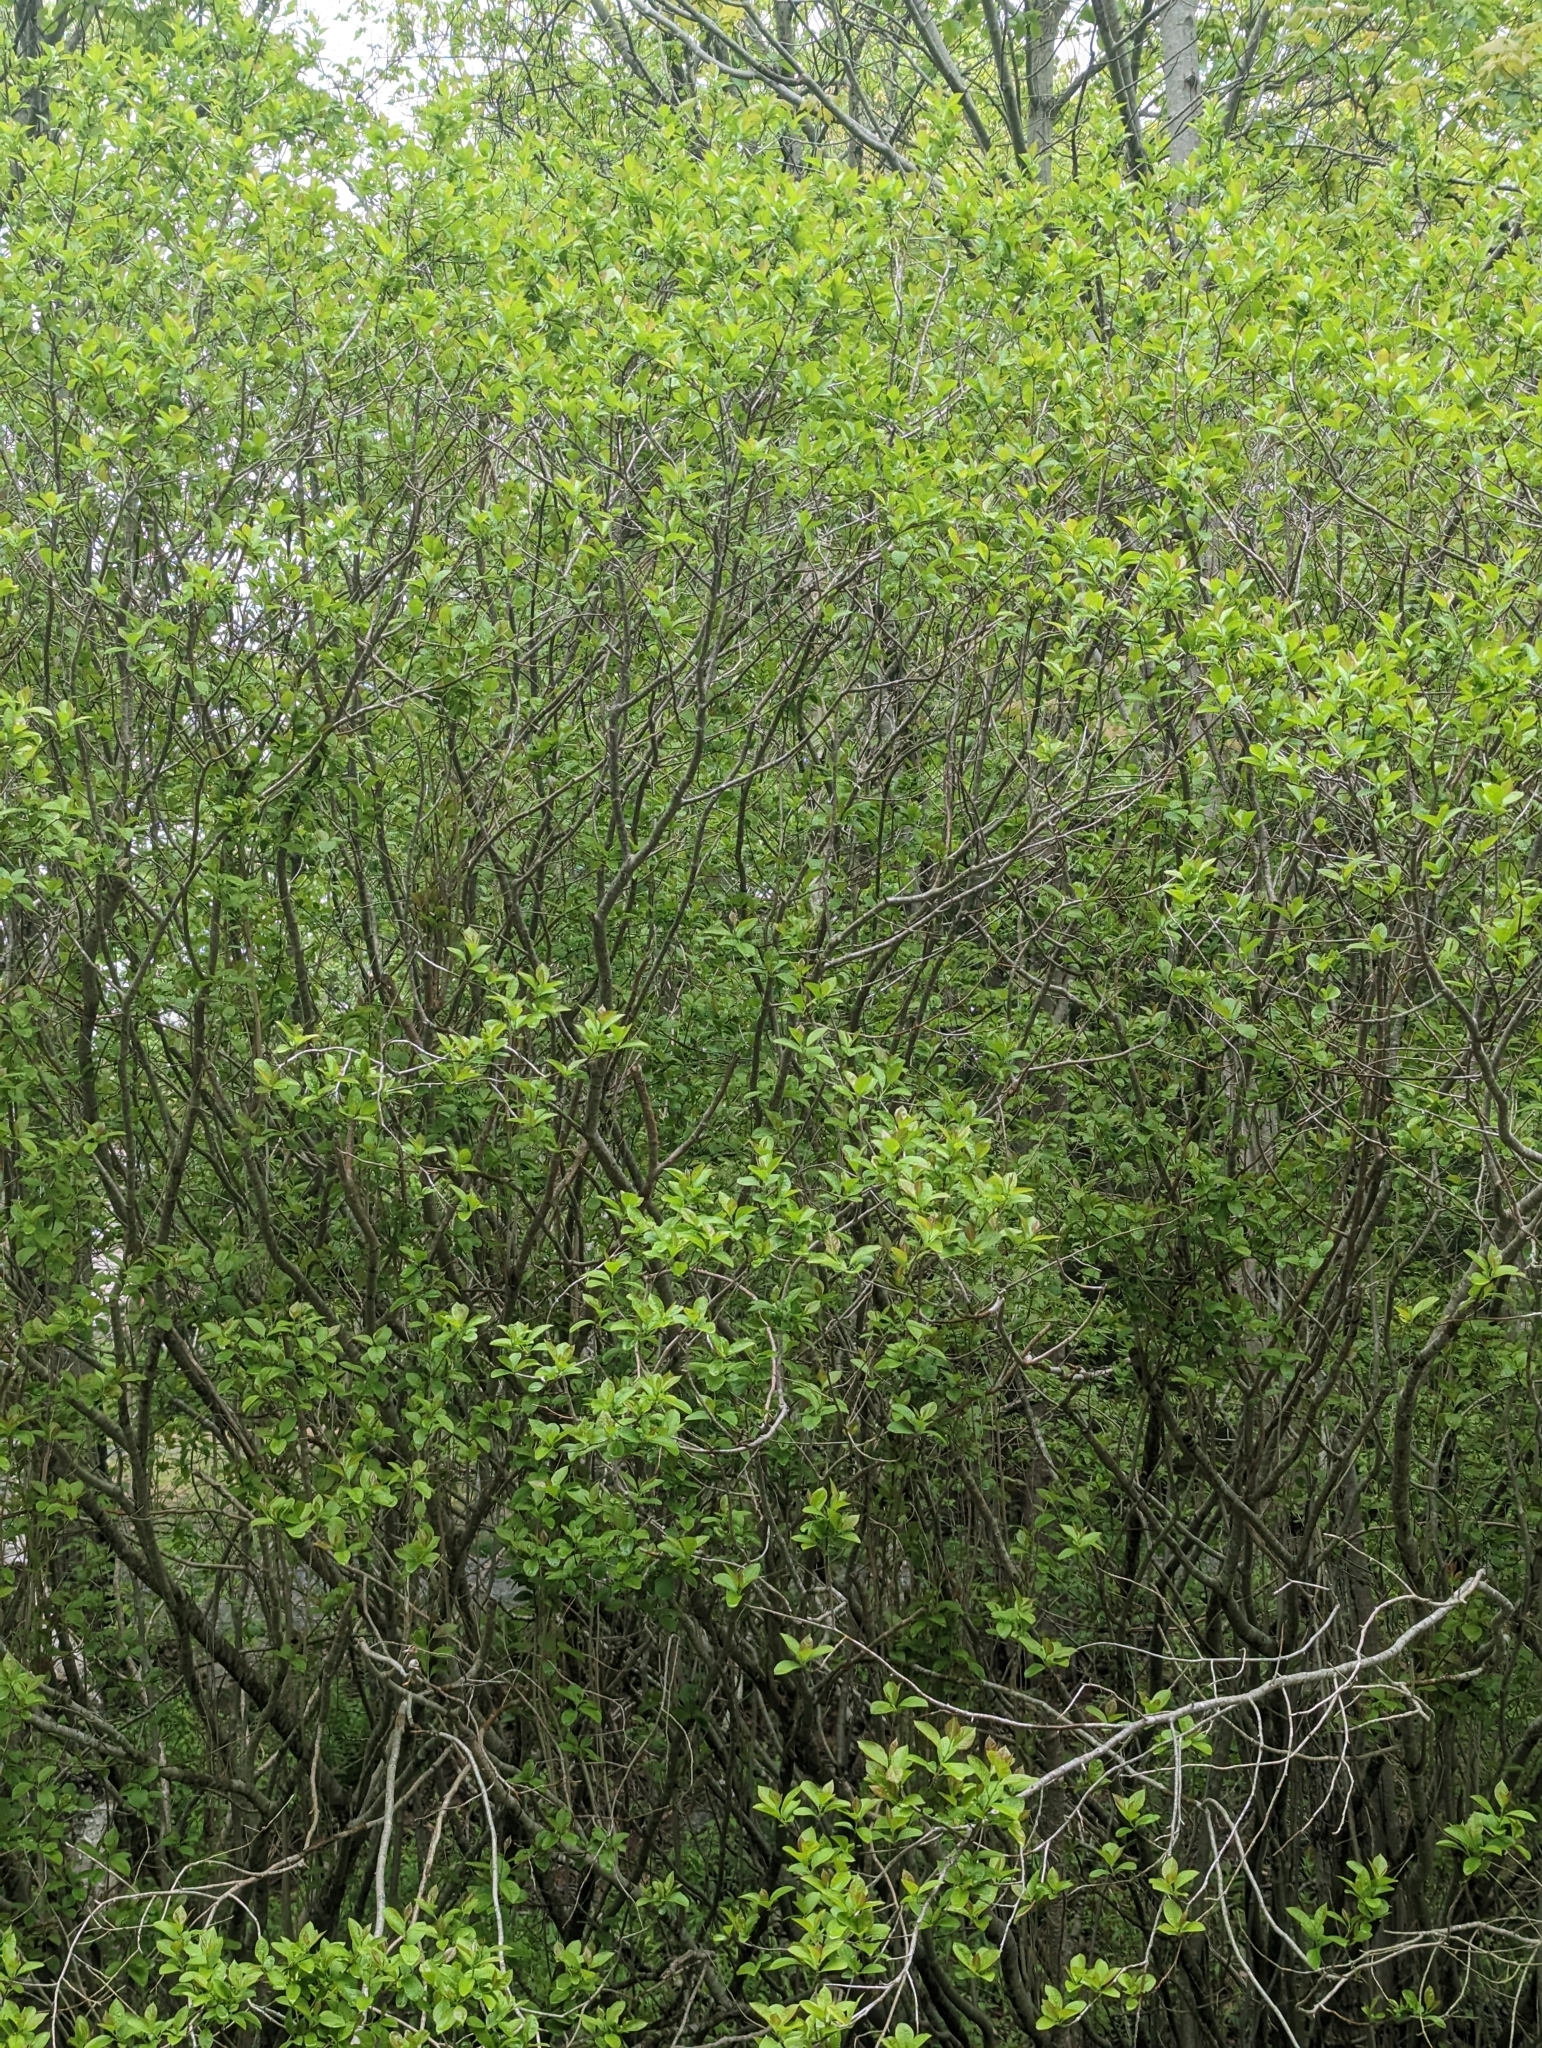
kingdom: Plantae
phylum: Tracheophyta
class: Magnoliopsida
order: Aquifoliales
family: Aquifoliaceae
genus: Ilex
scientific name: Ilex mucronata
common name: Catberry
